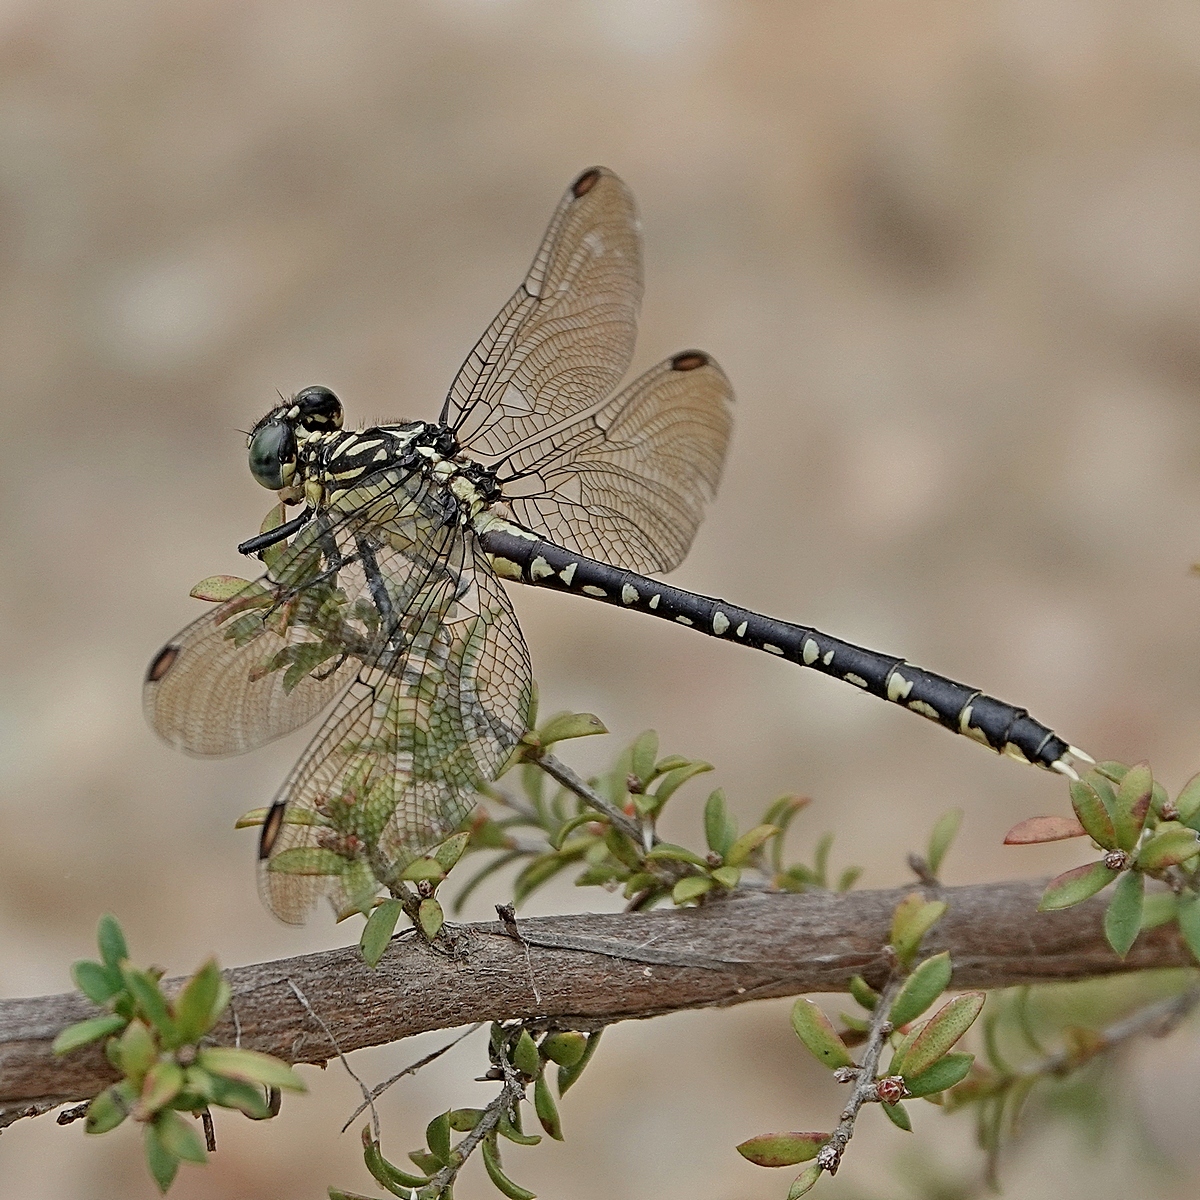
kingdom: Animalia
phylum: Arthropoda
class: Insecta
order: Odonata
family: Gomphidae
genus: Hemigomphus
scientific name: Hemigomphus gouldii
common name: Southern vicetail
